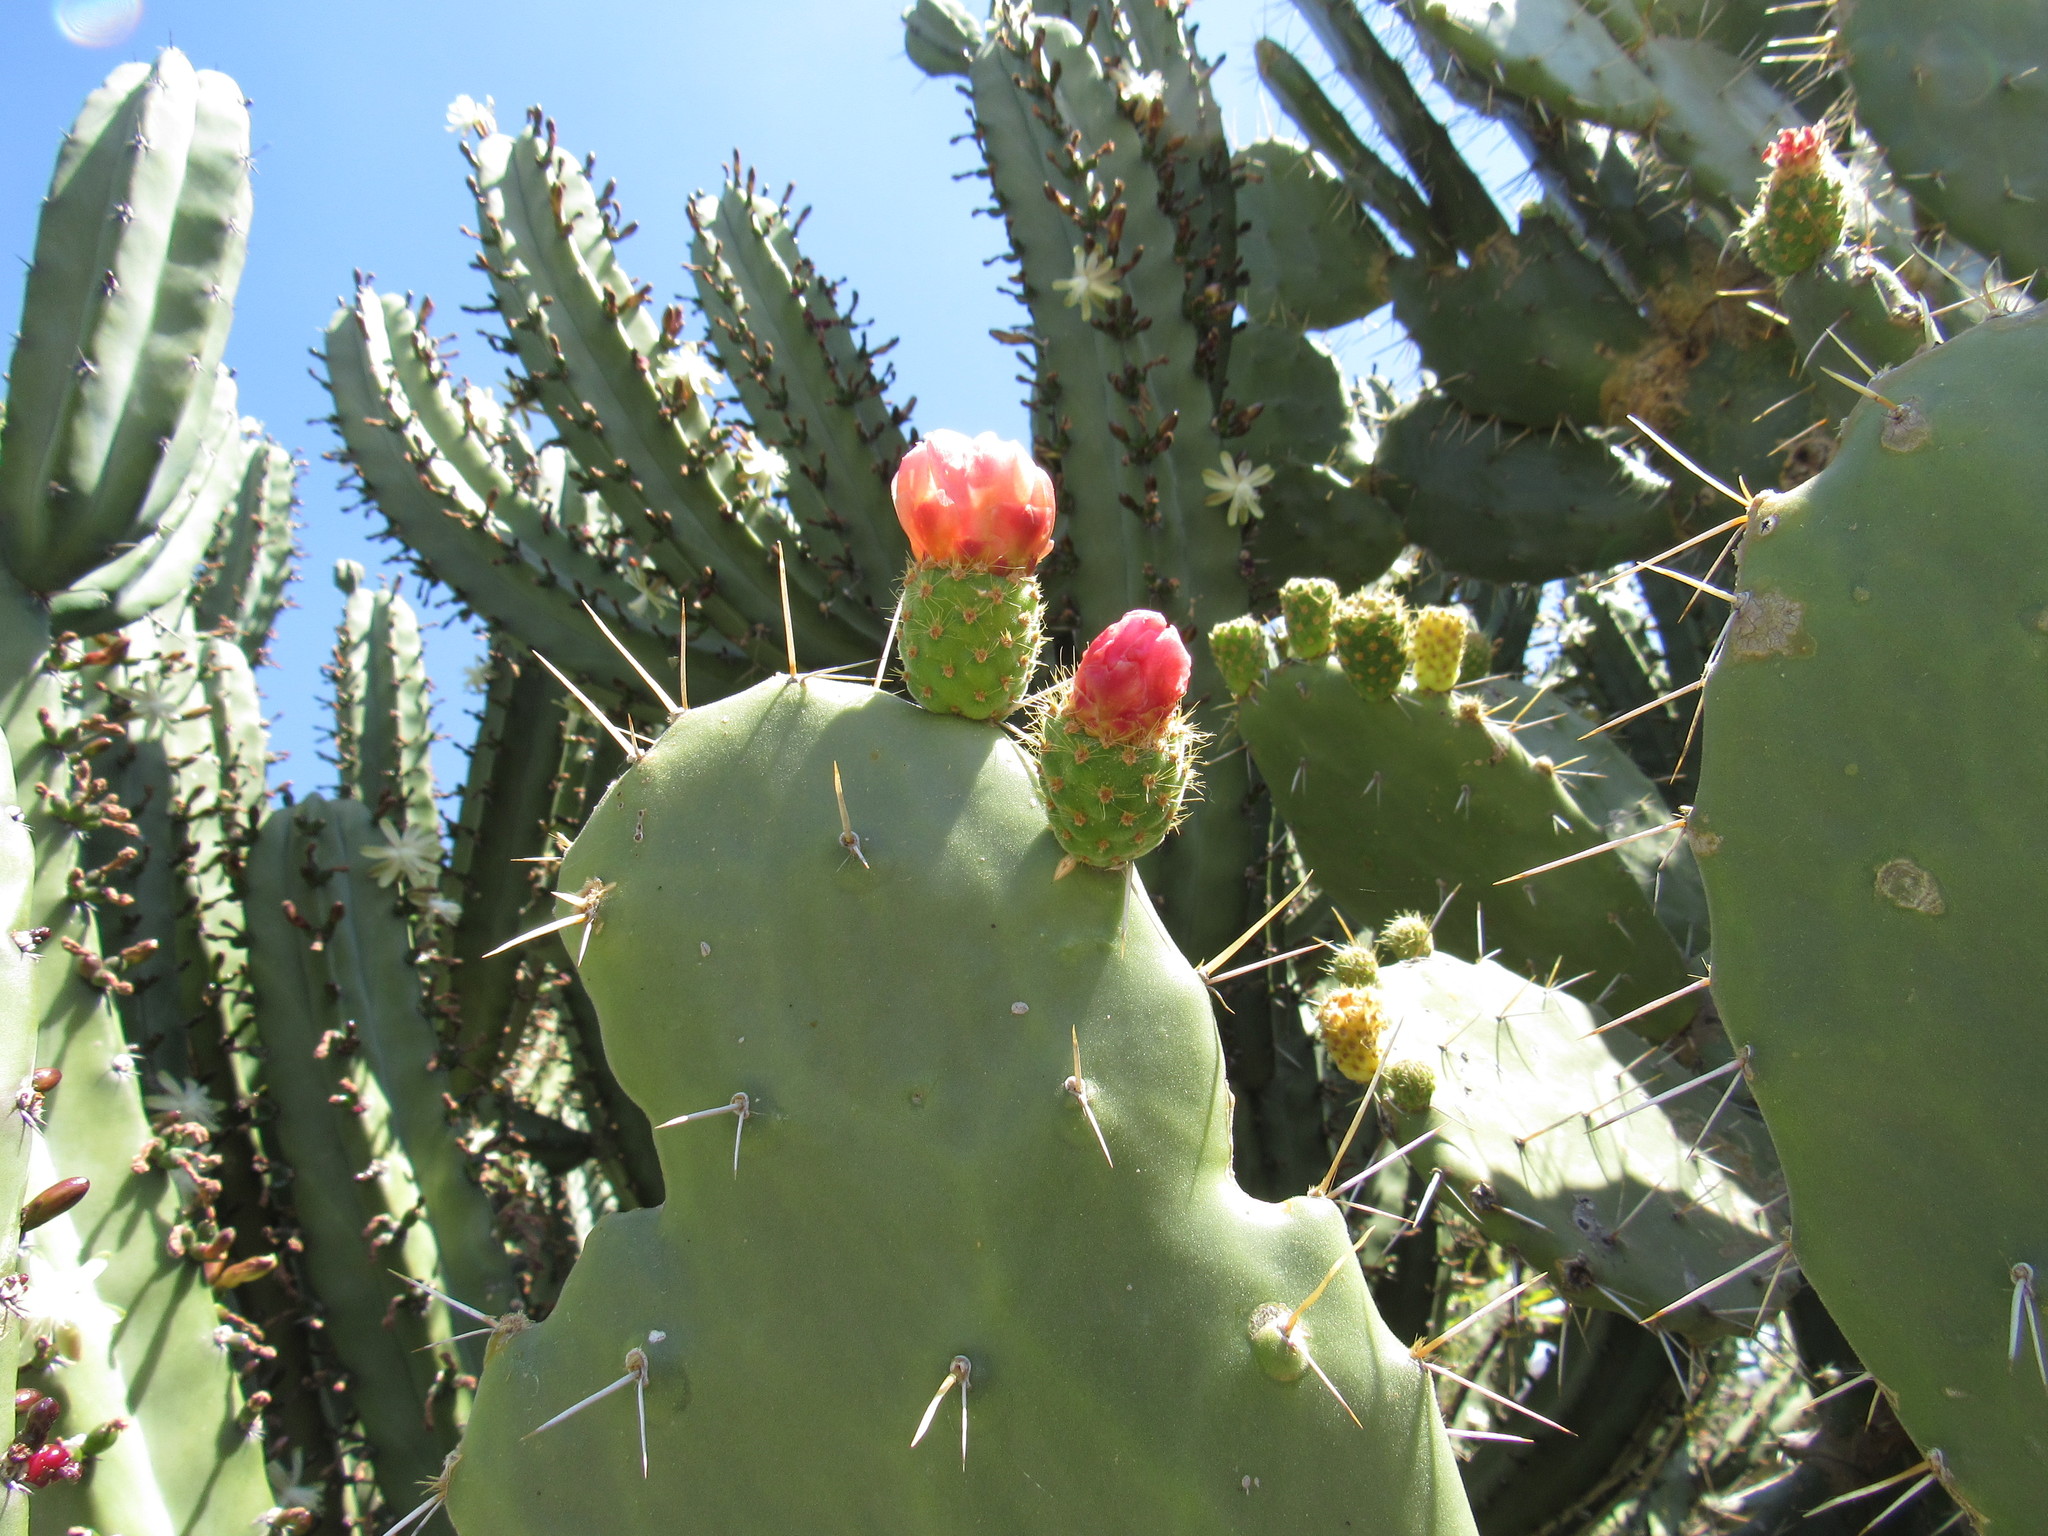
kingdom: Plantae
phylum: Tracheophyta
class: Magnoliopsida
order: Caryophyllales
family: Cactaceae
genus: Opuntia
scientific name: Opuntia tomentosa
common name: Woollyjoint pricklypear
